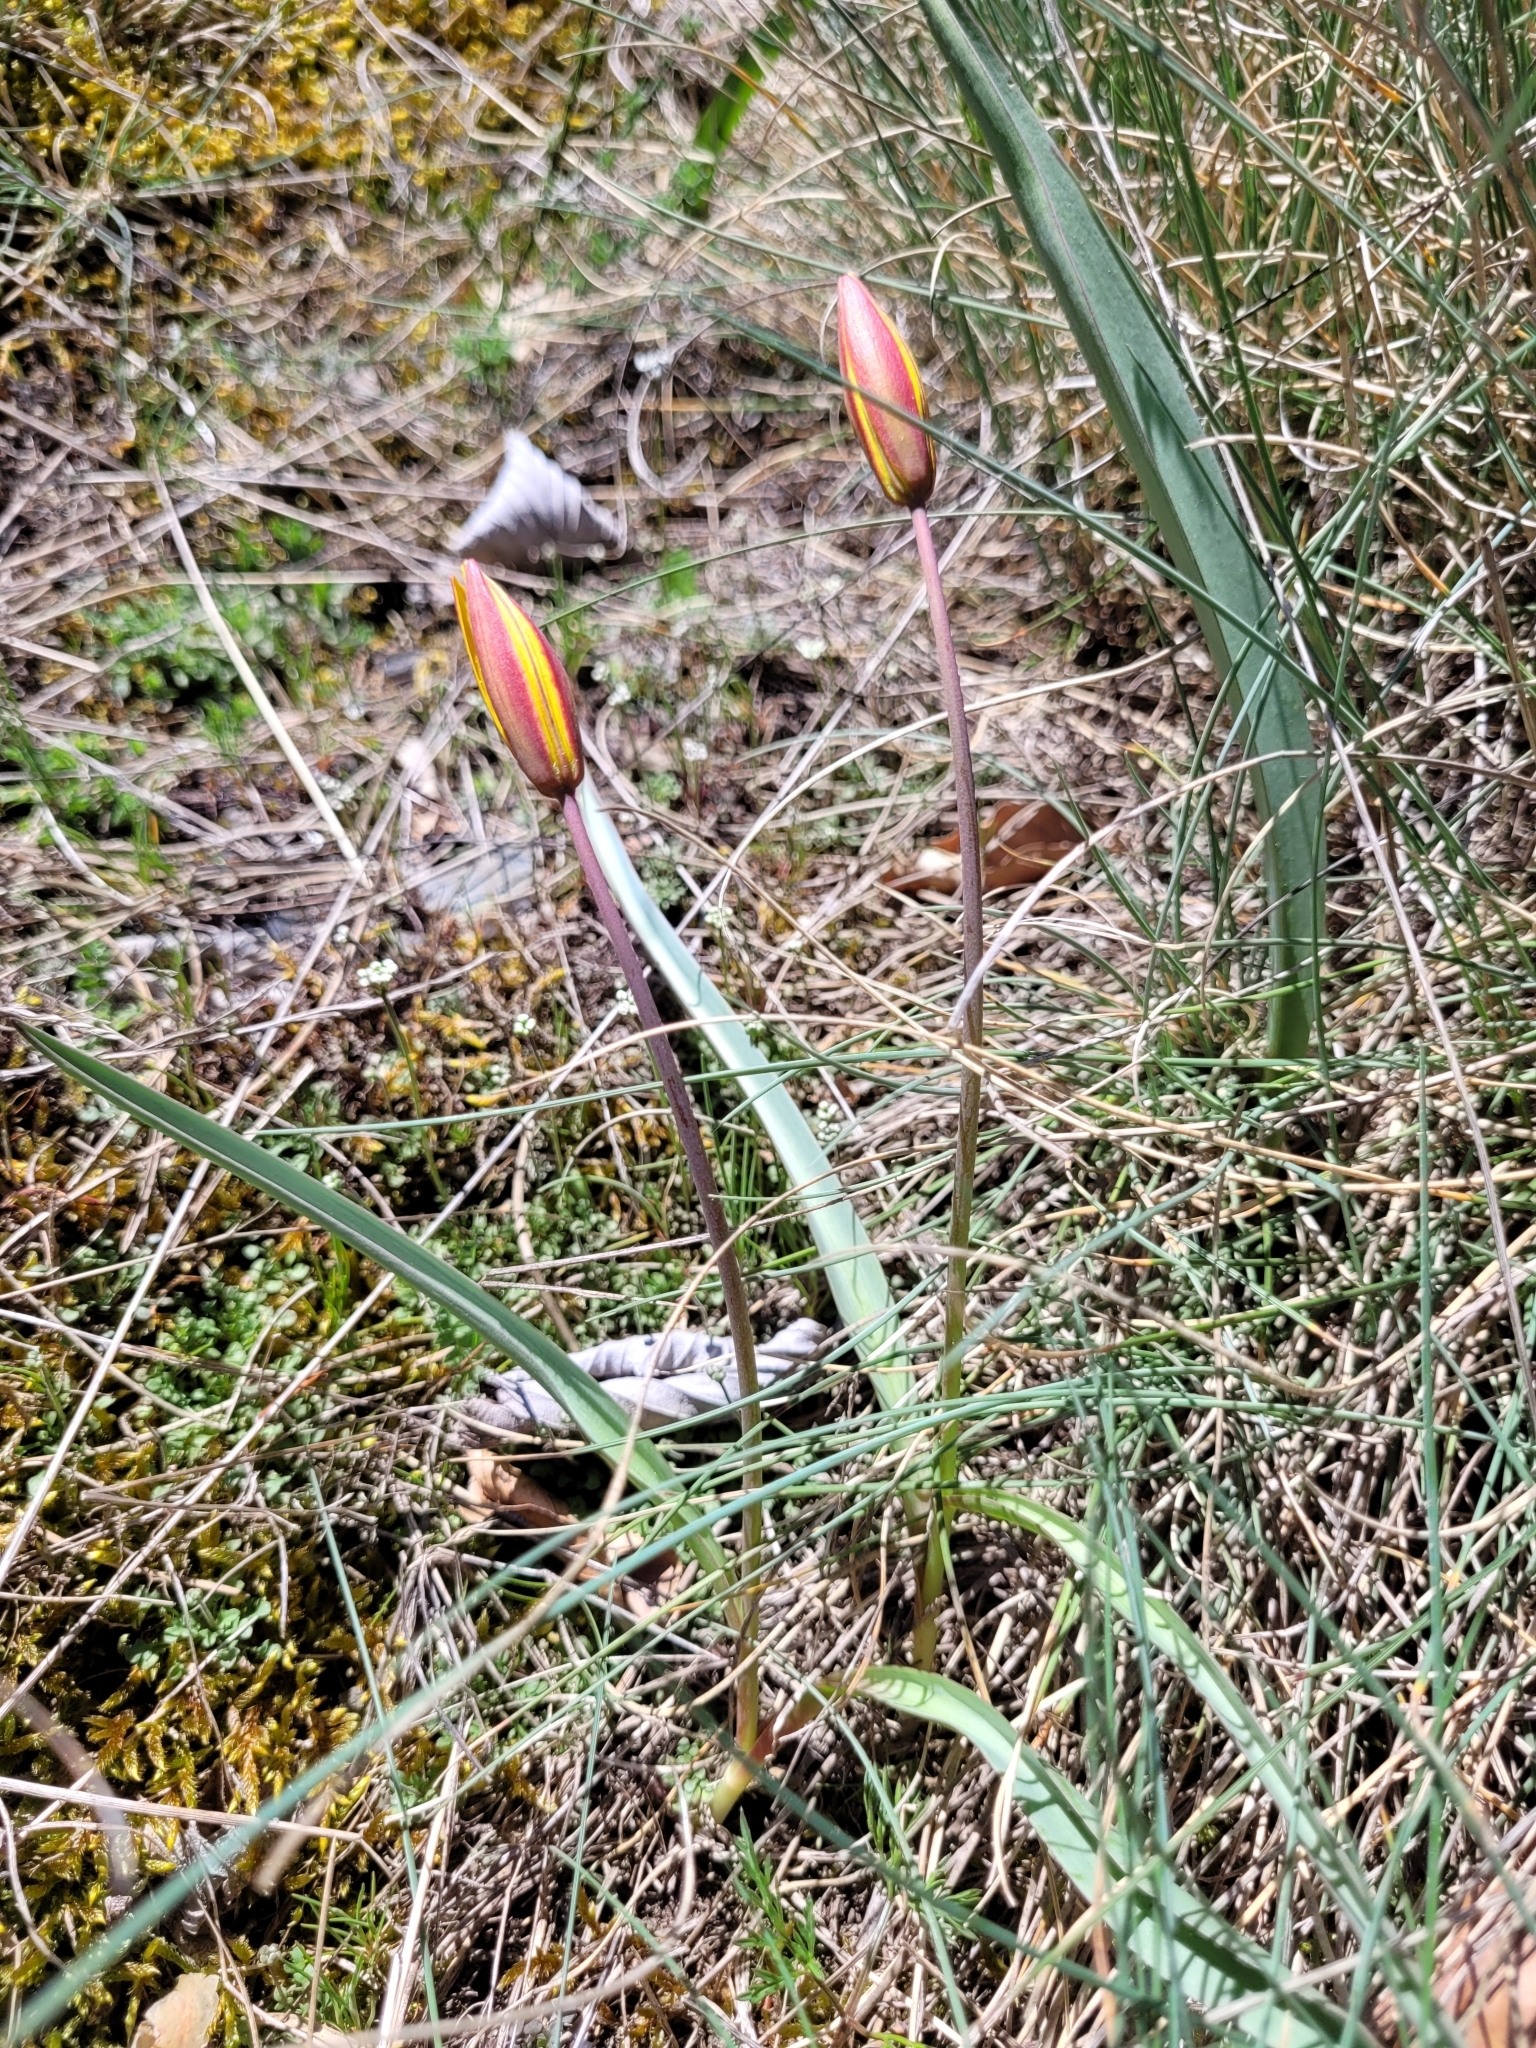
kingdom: Plantae
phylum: Tracheophyta
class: Liliopsida
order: Liliales
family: Liliaceae
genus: Tulipa
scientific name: Tulipa sylvestris
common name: Wild tulip
